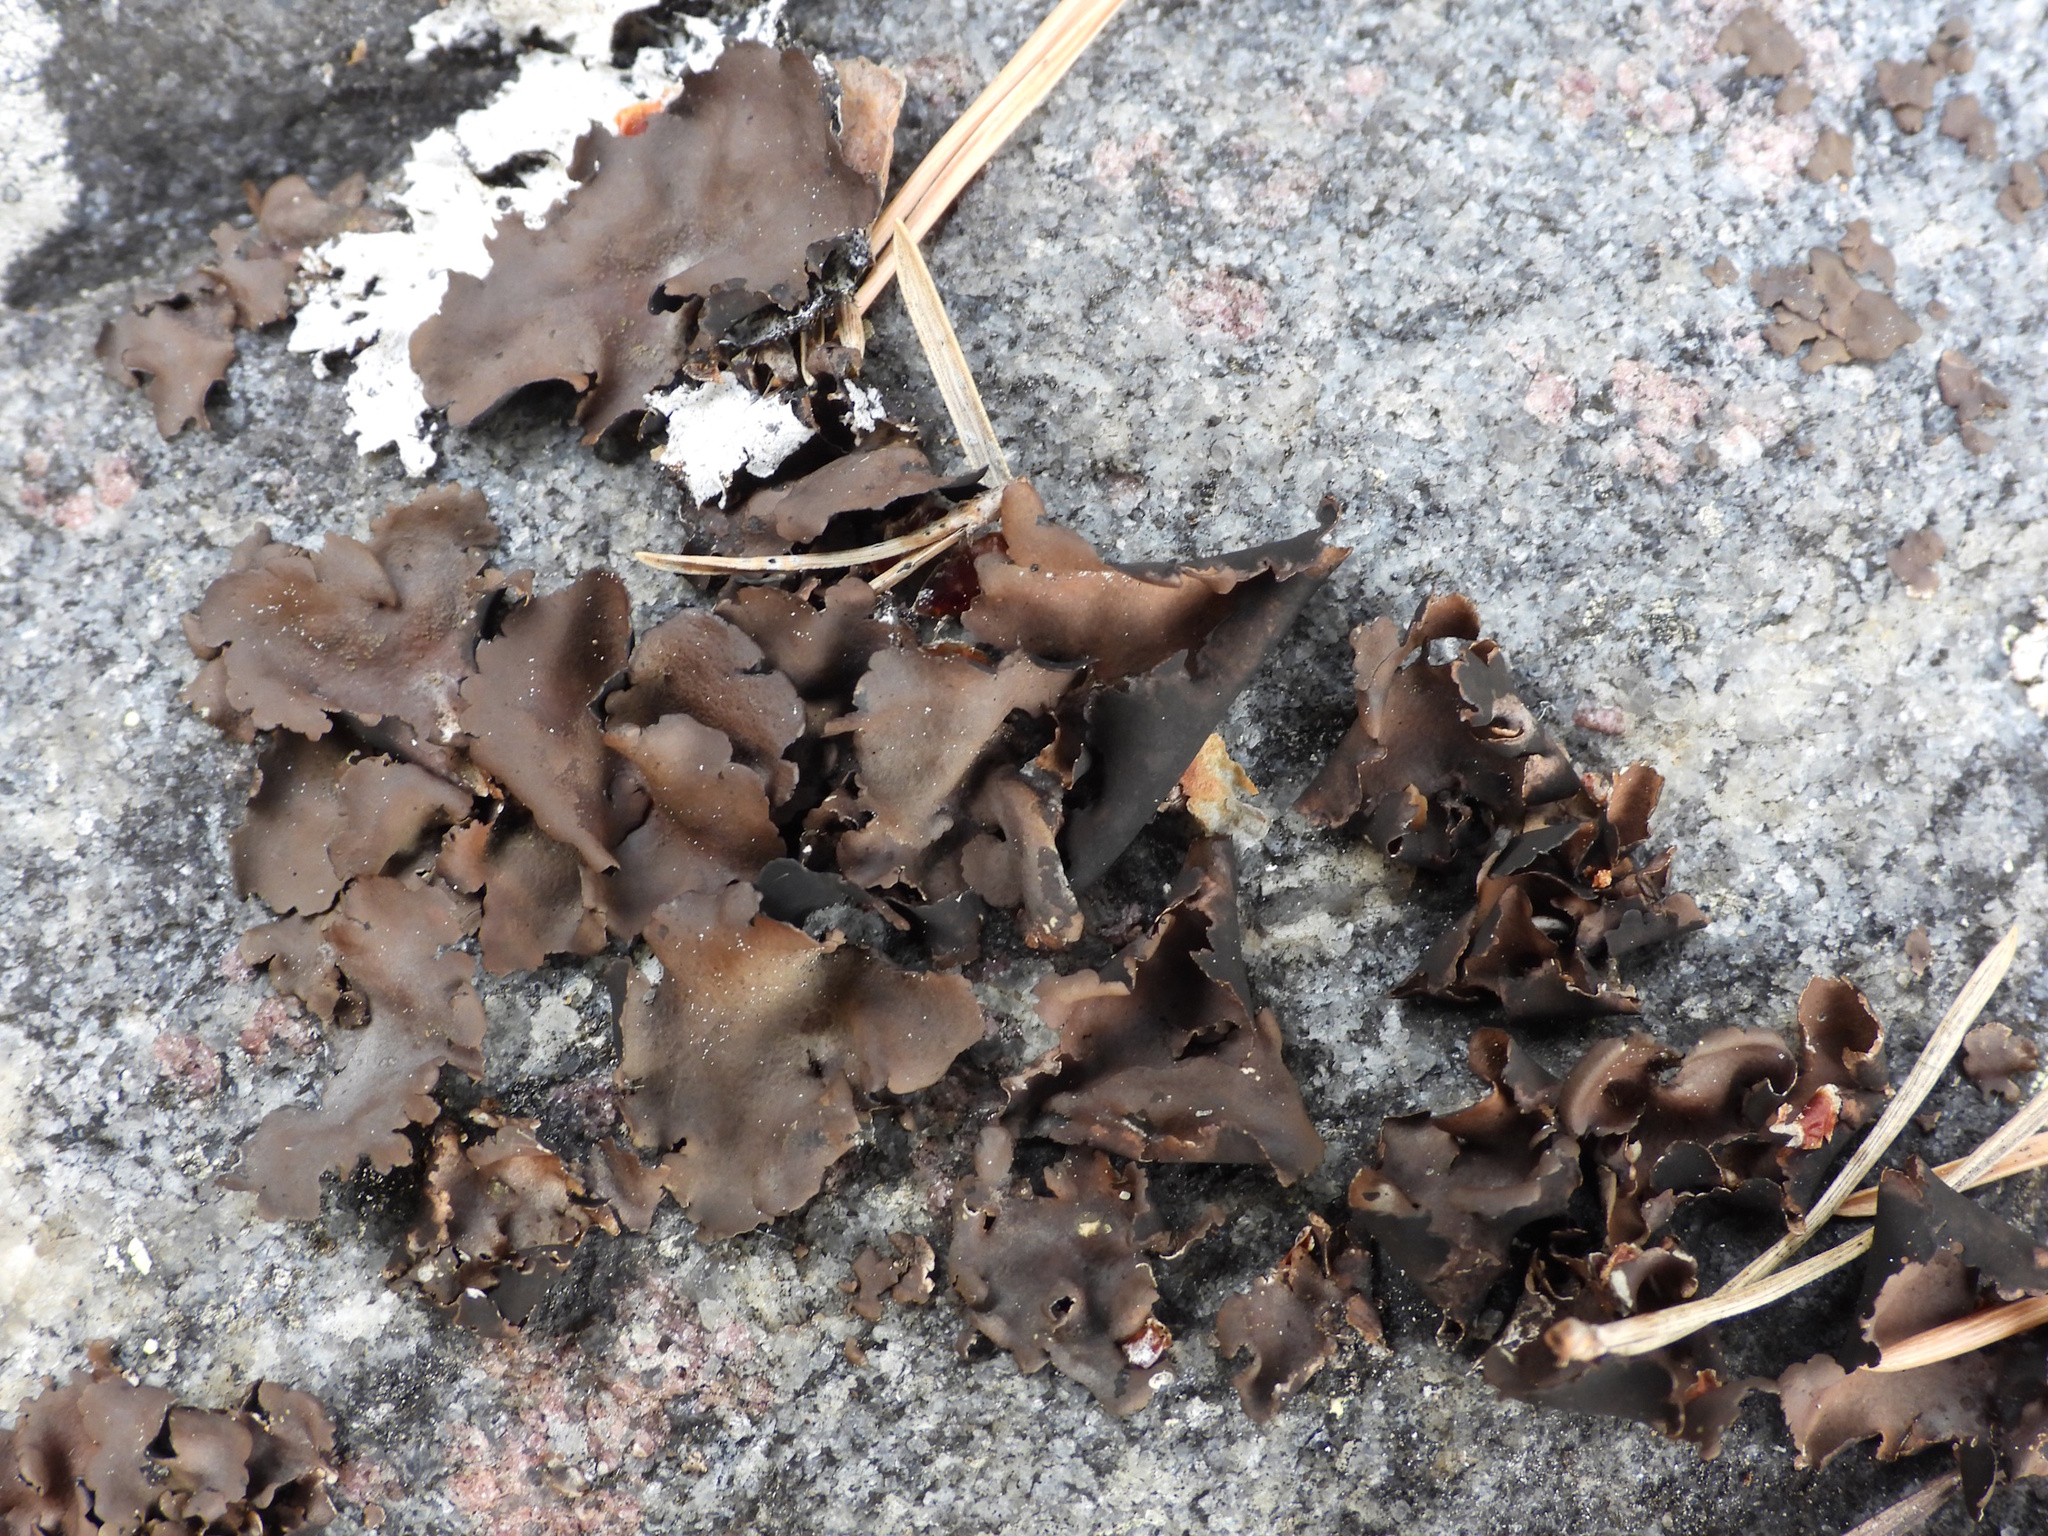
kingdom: Fungi
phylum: Ascomycota
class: Lecanoromycetes
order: Umbilicariales
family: Umbilicariaceae
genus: Umbilicaria
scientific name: Umbilicaria polyphylla
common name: Petalled rocktripe lichen
